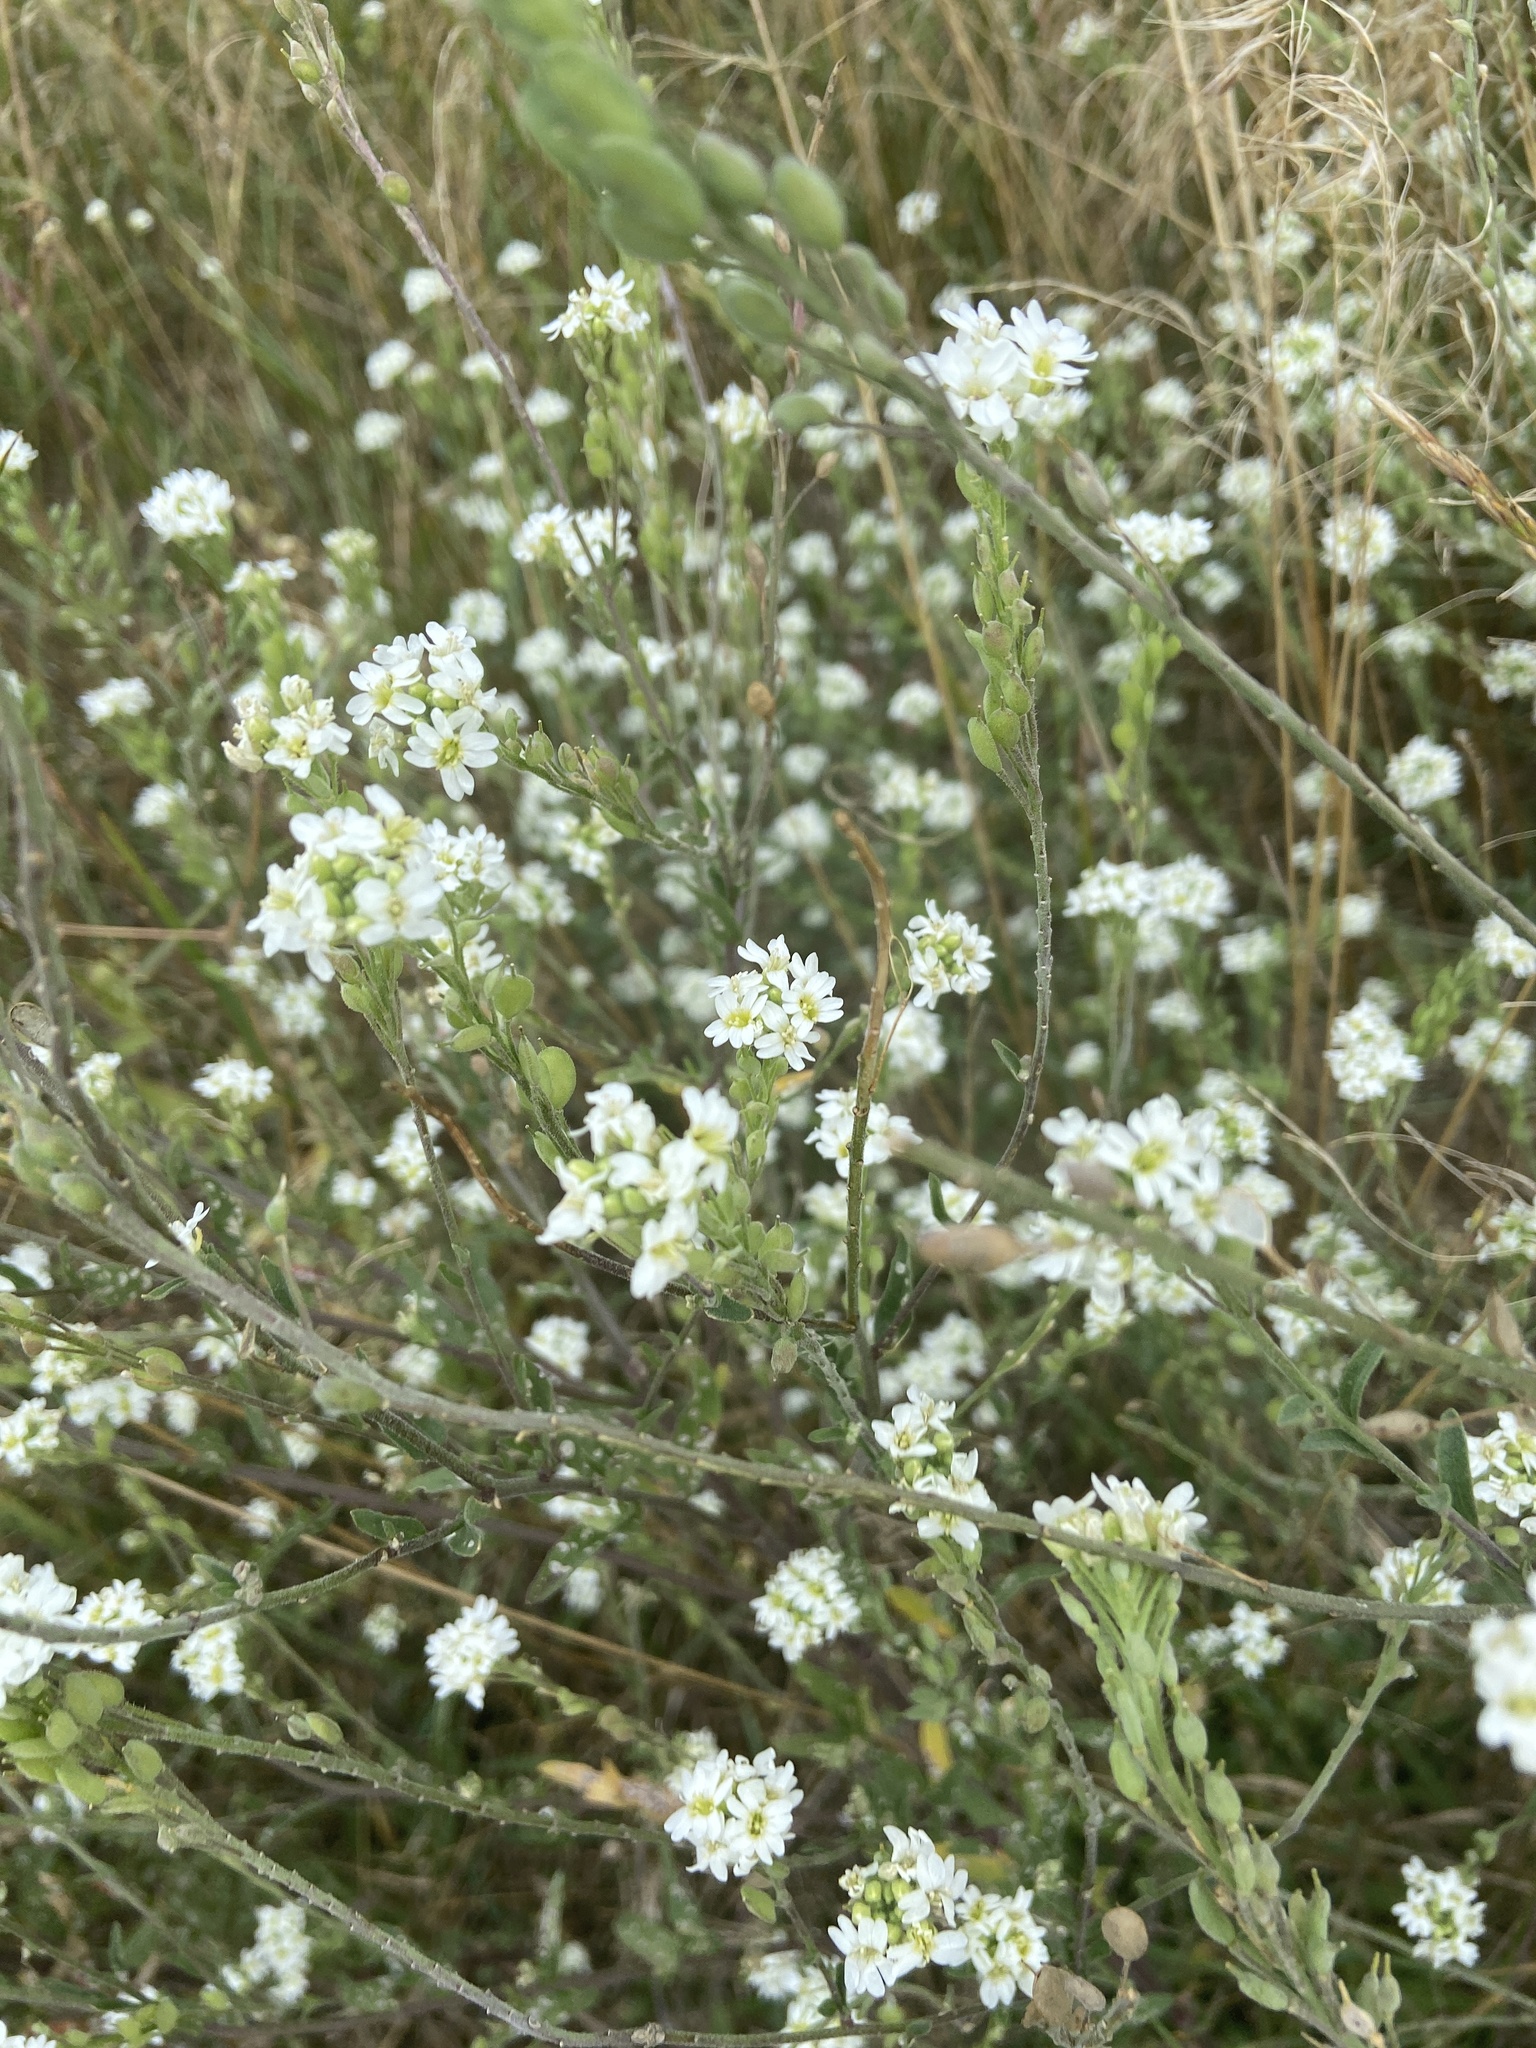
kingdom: Plantae
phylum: Tracheophyta
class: Magnoliopsida
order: Brassicales
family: Brassicaceae
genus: Berteroa
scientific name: Berteroa incana
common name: Hoary alison
